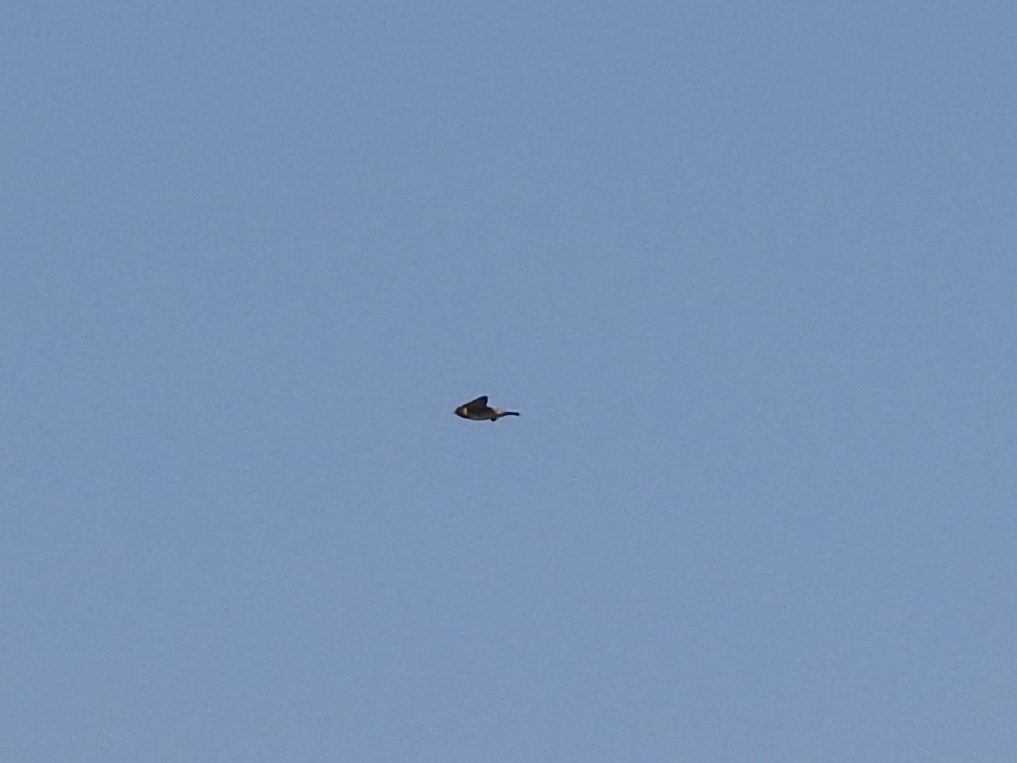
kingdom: Animalia
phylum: Chordata
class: Aves
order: Passeriformes
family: Hirundinidae
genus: Petrochelidon
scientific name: Petrochelidon pyrrhonota
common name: American cliff swallow
